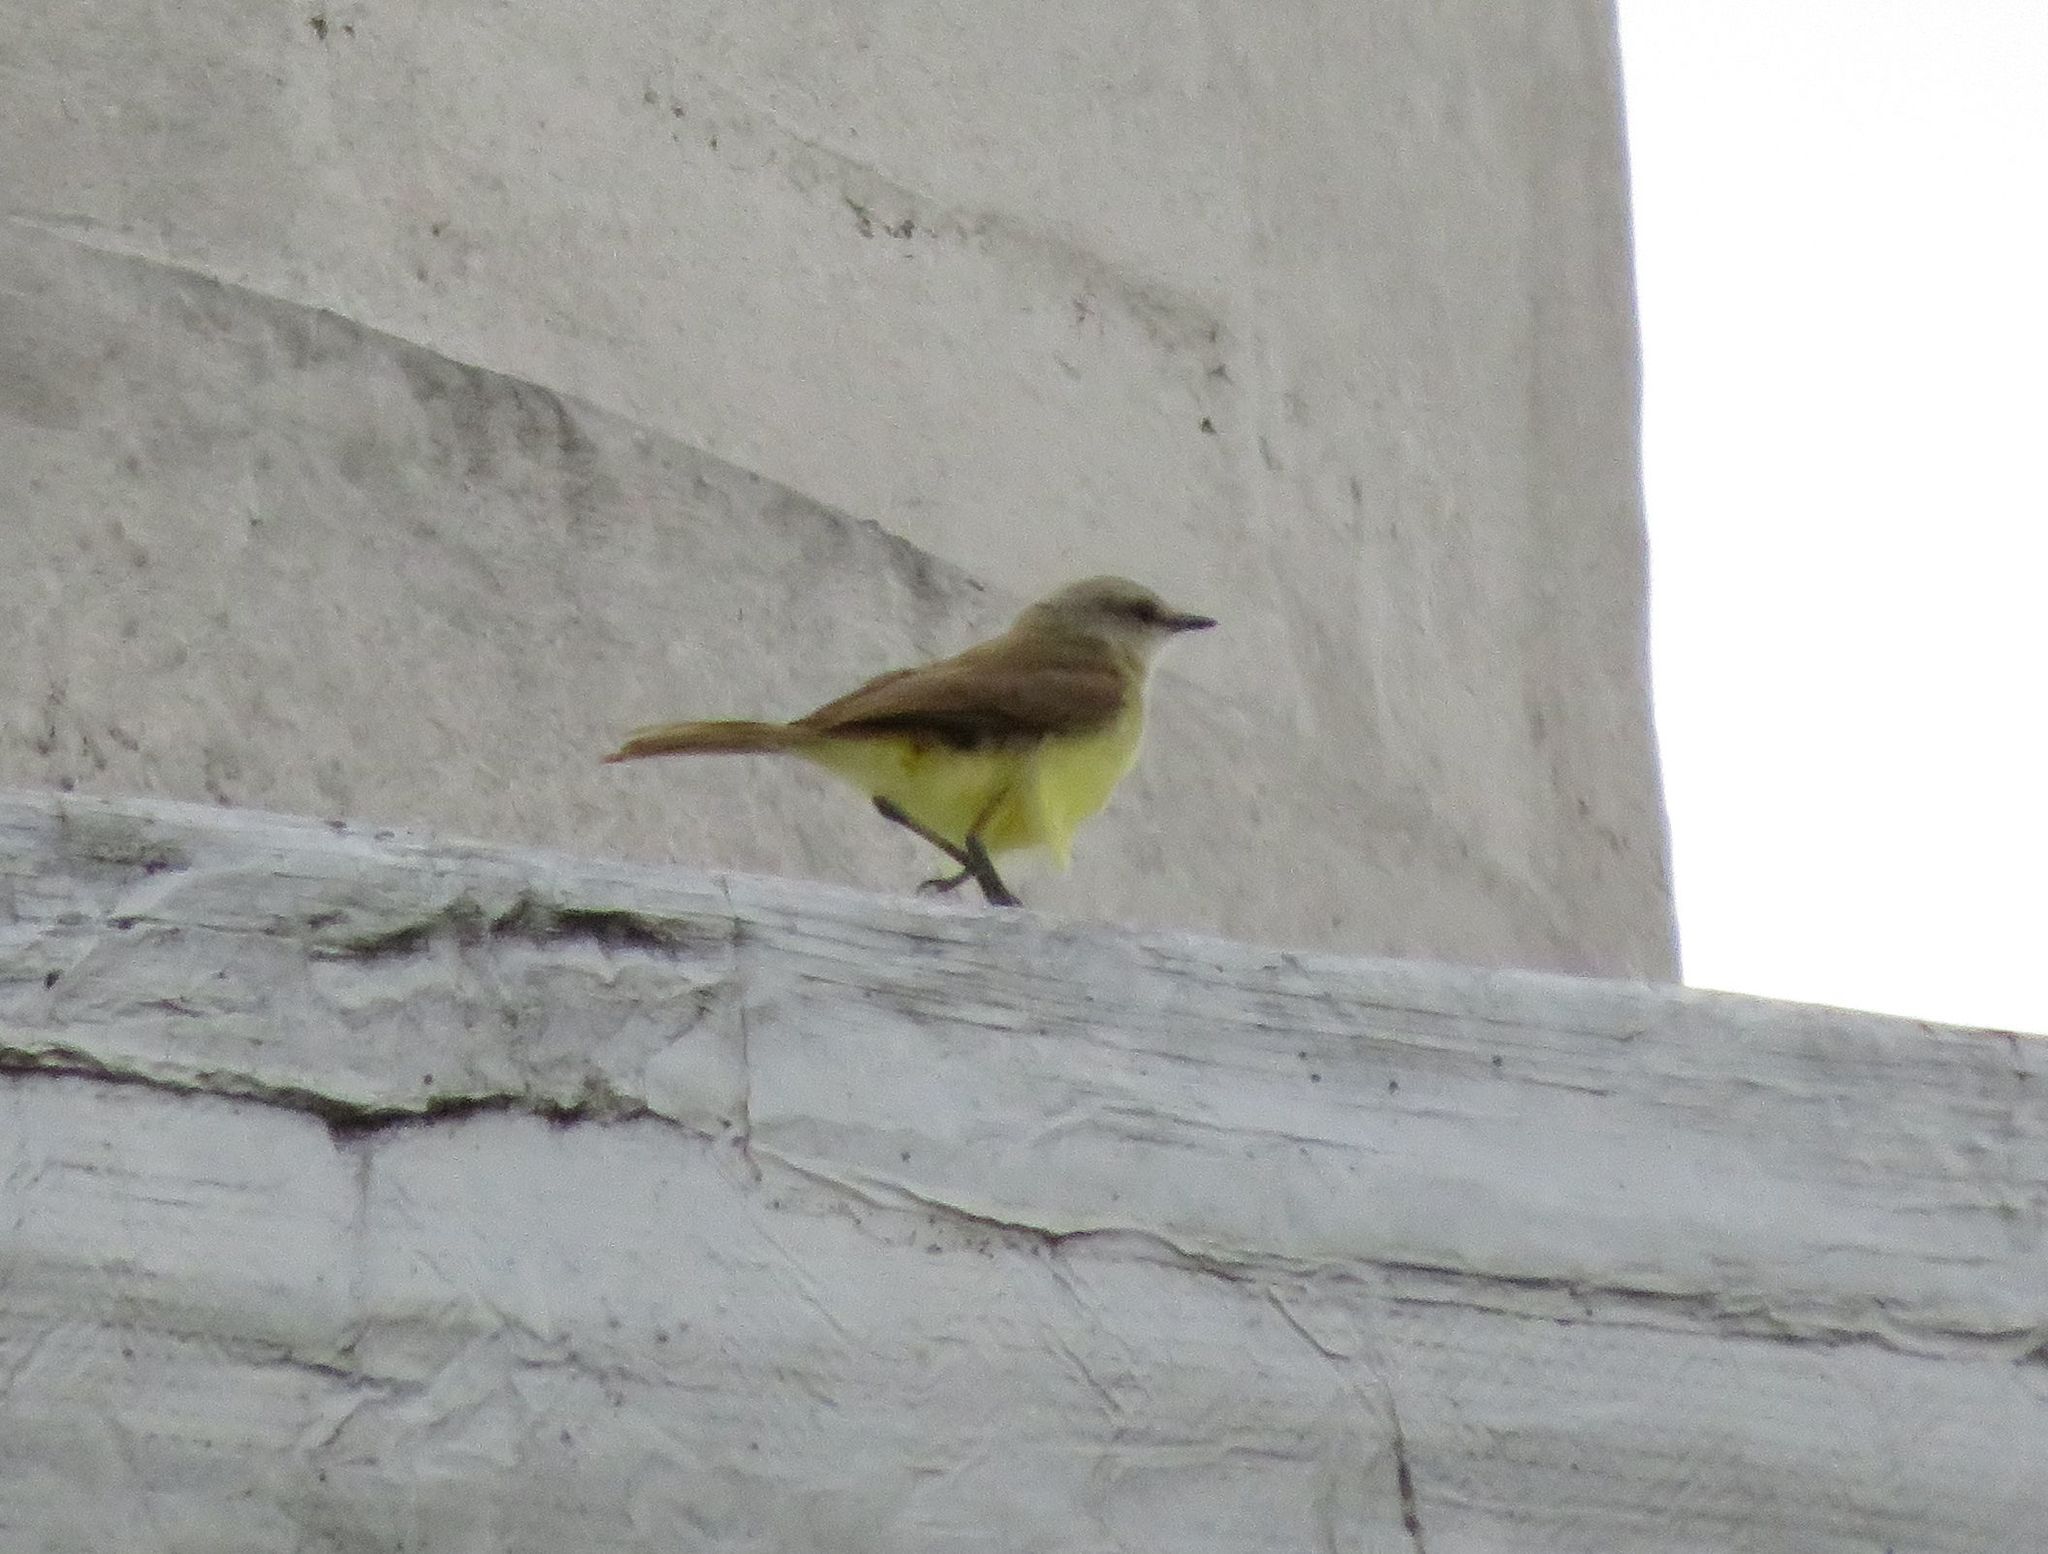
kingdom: Animalia
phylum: Chordata
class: Aves
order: Passeriformes
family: Tyrannidae
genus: Machetornis
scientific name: Machetornis rixosa
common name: Cattle tyrant
